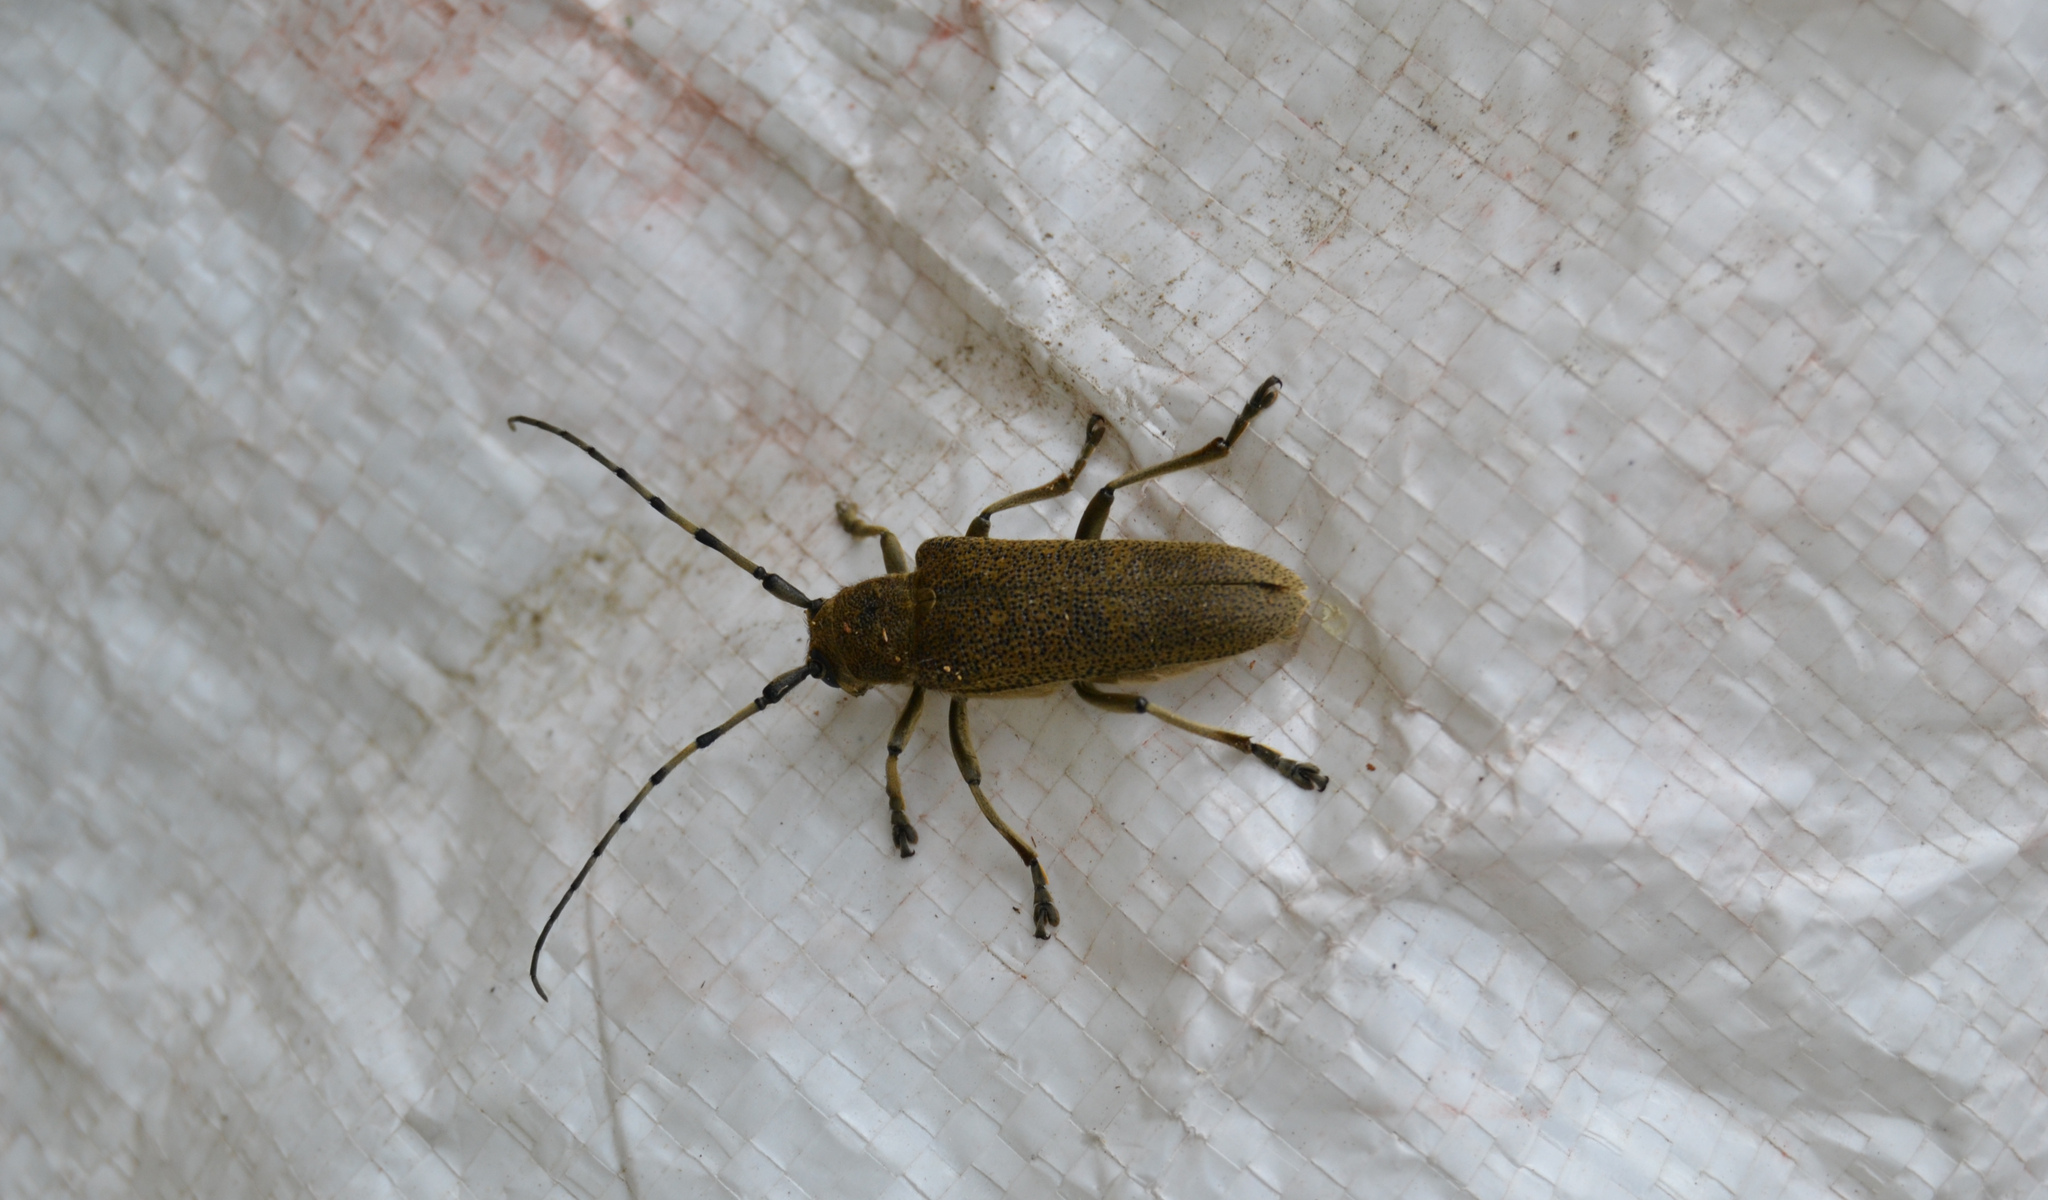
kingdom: Animalia
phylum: Arthropoda
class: Insecta
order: Coleoptera
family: Cerambycidae
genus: Saperda
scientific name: Saperda carcharias
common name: Poplar borer
